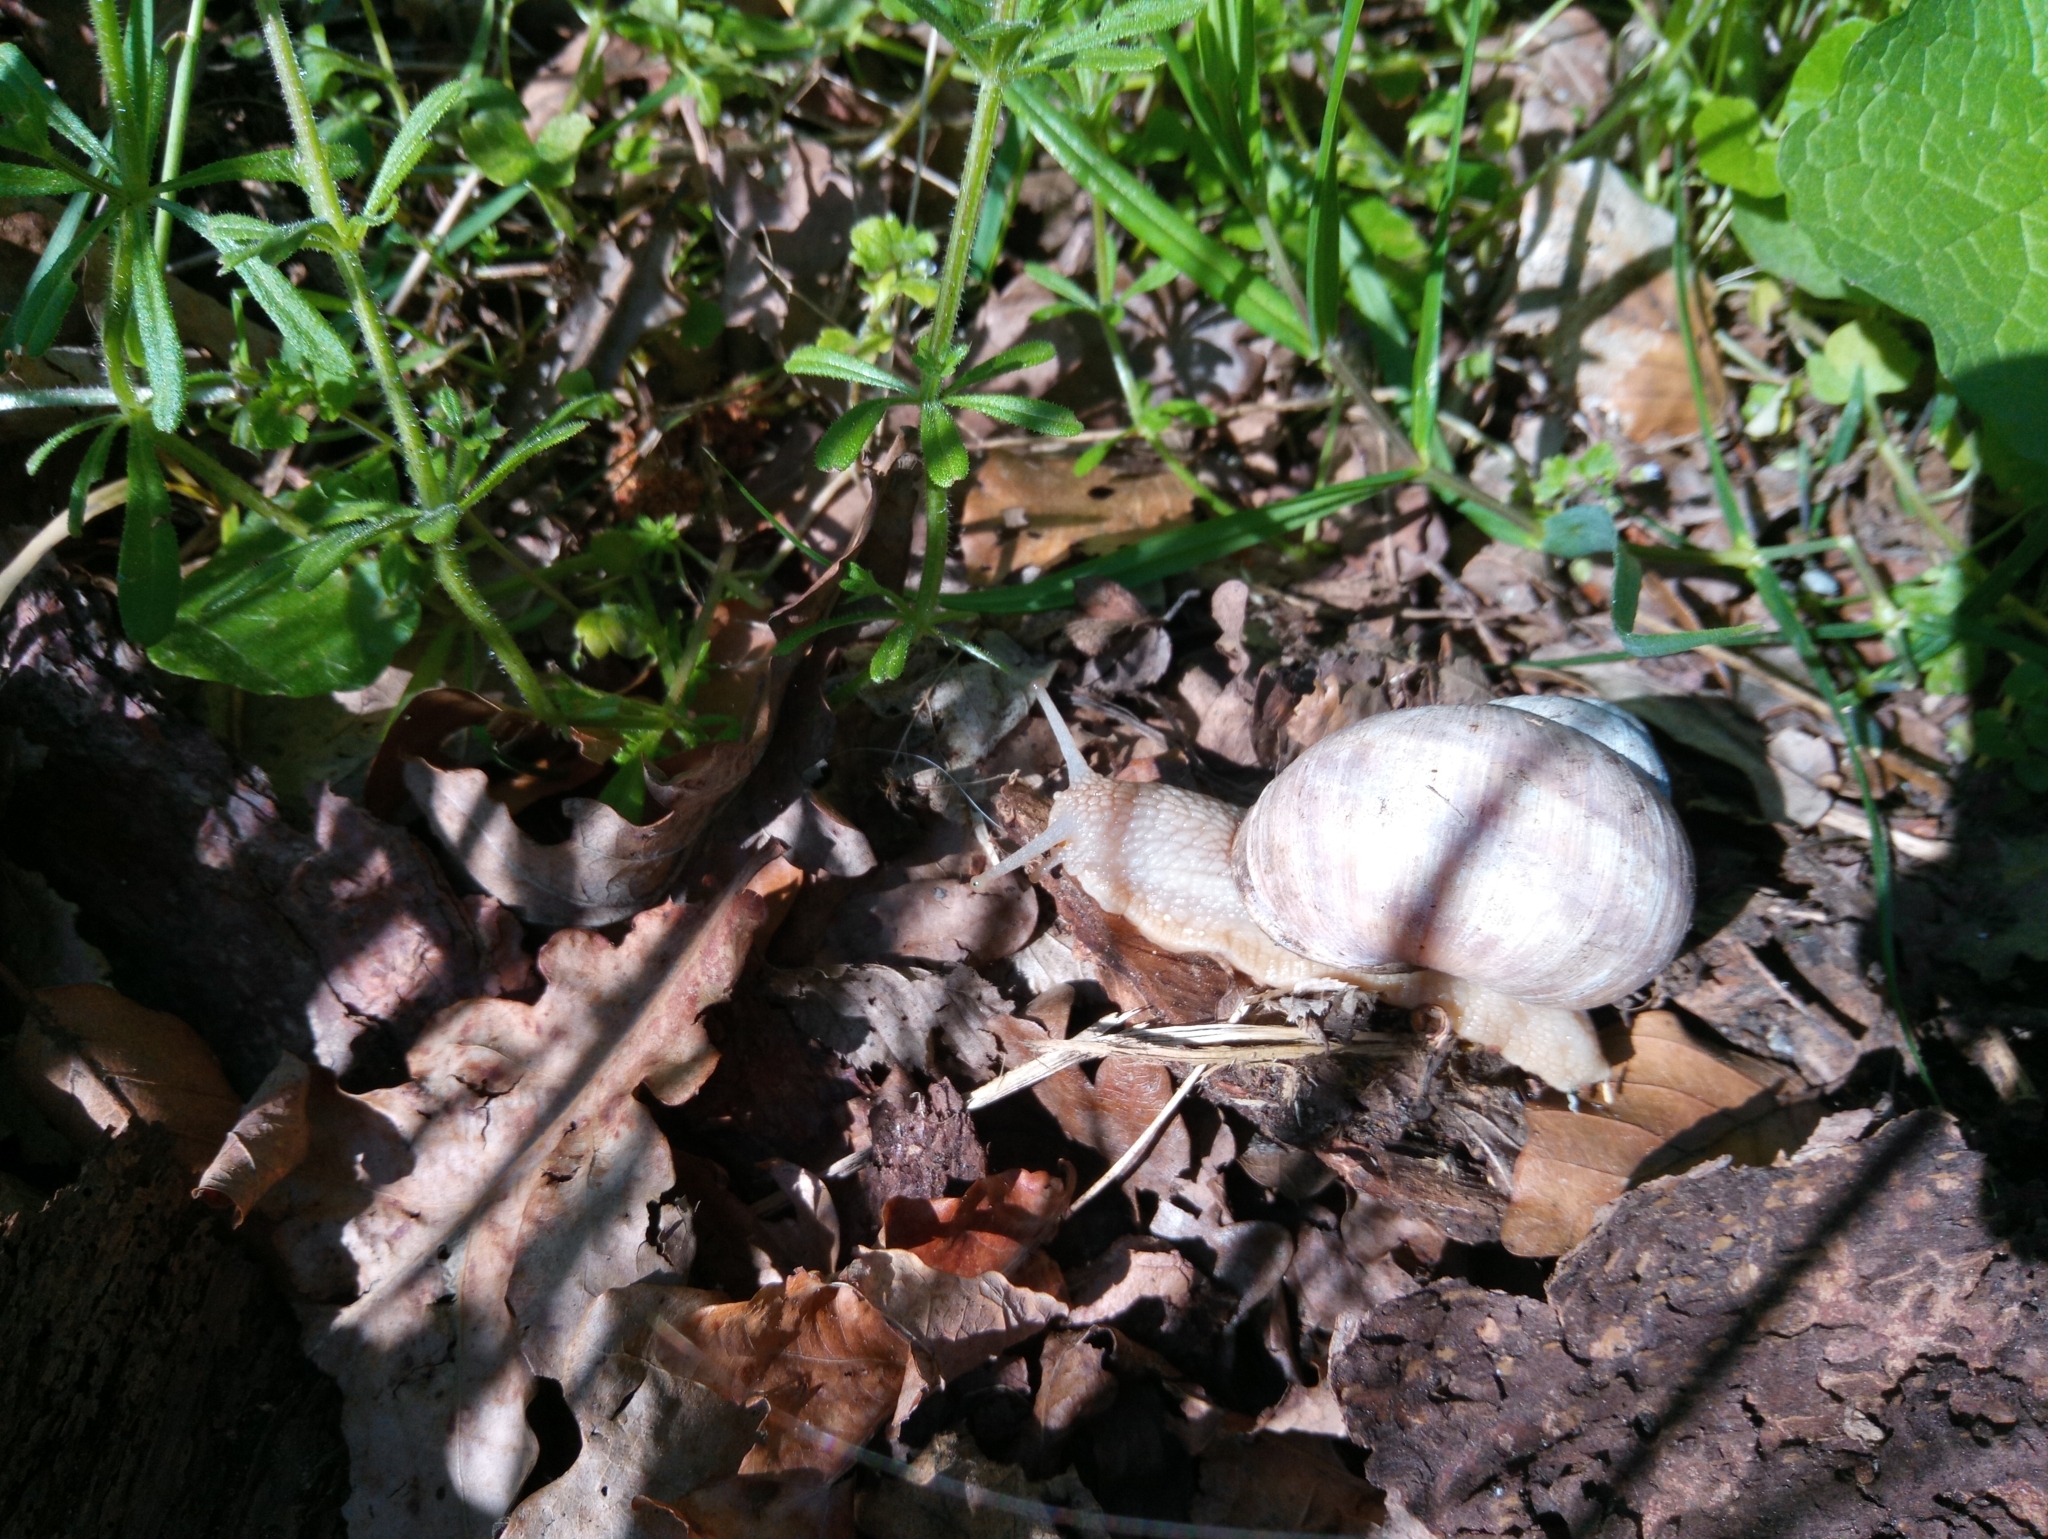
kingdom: Animalia
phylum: Mollusca
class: Gastropoda
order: Stylommatophora
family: Helicidae
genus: Helix
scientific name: Helix pomatia
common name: Roman snail
